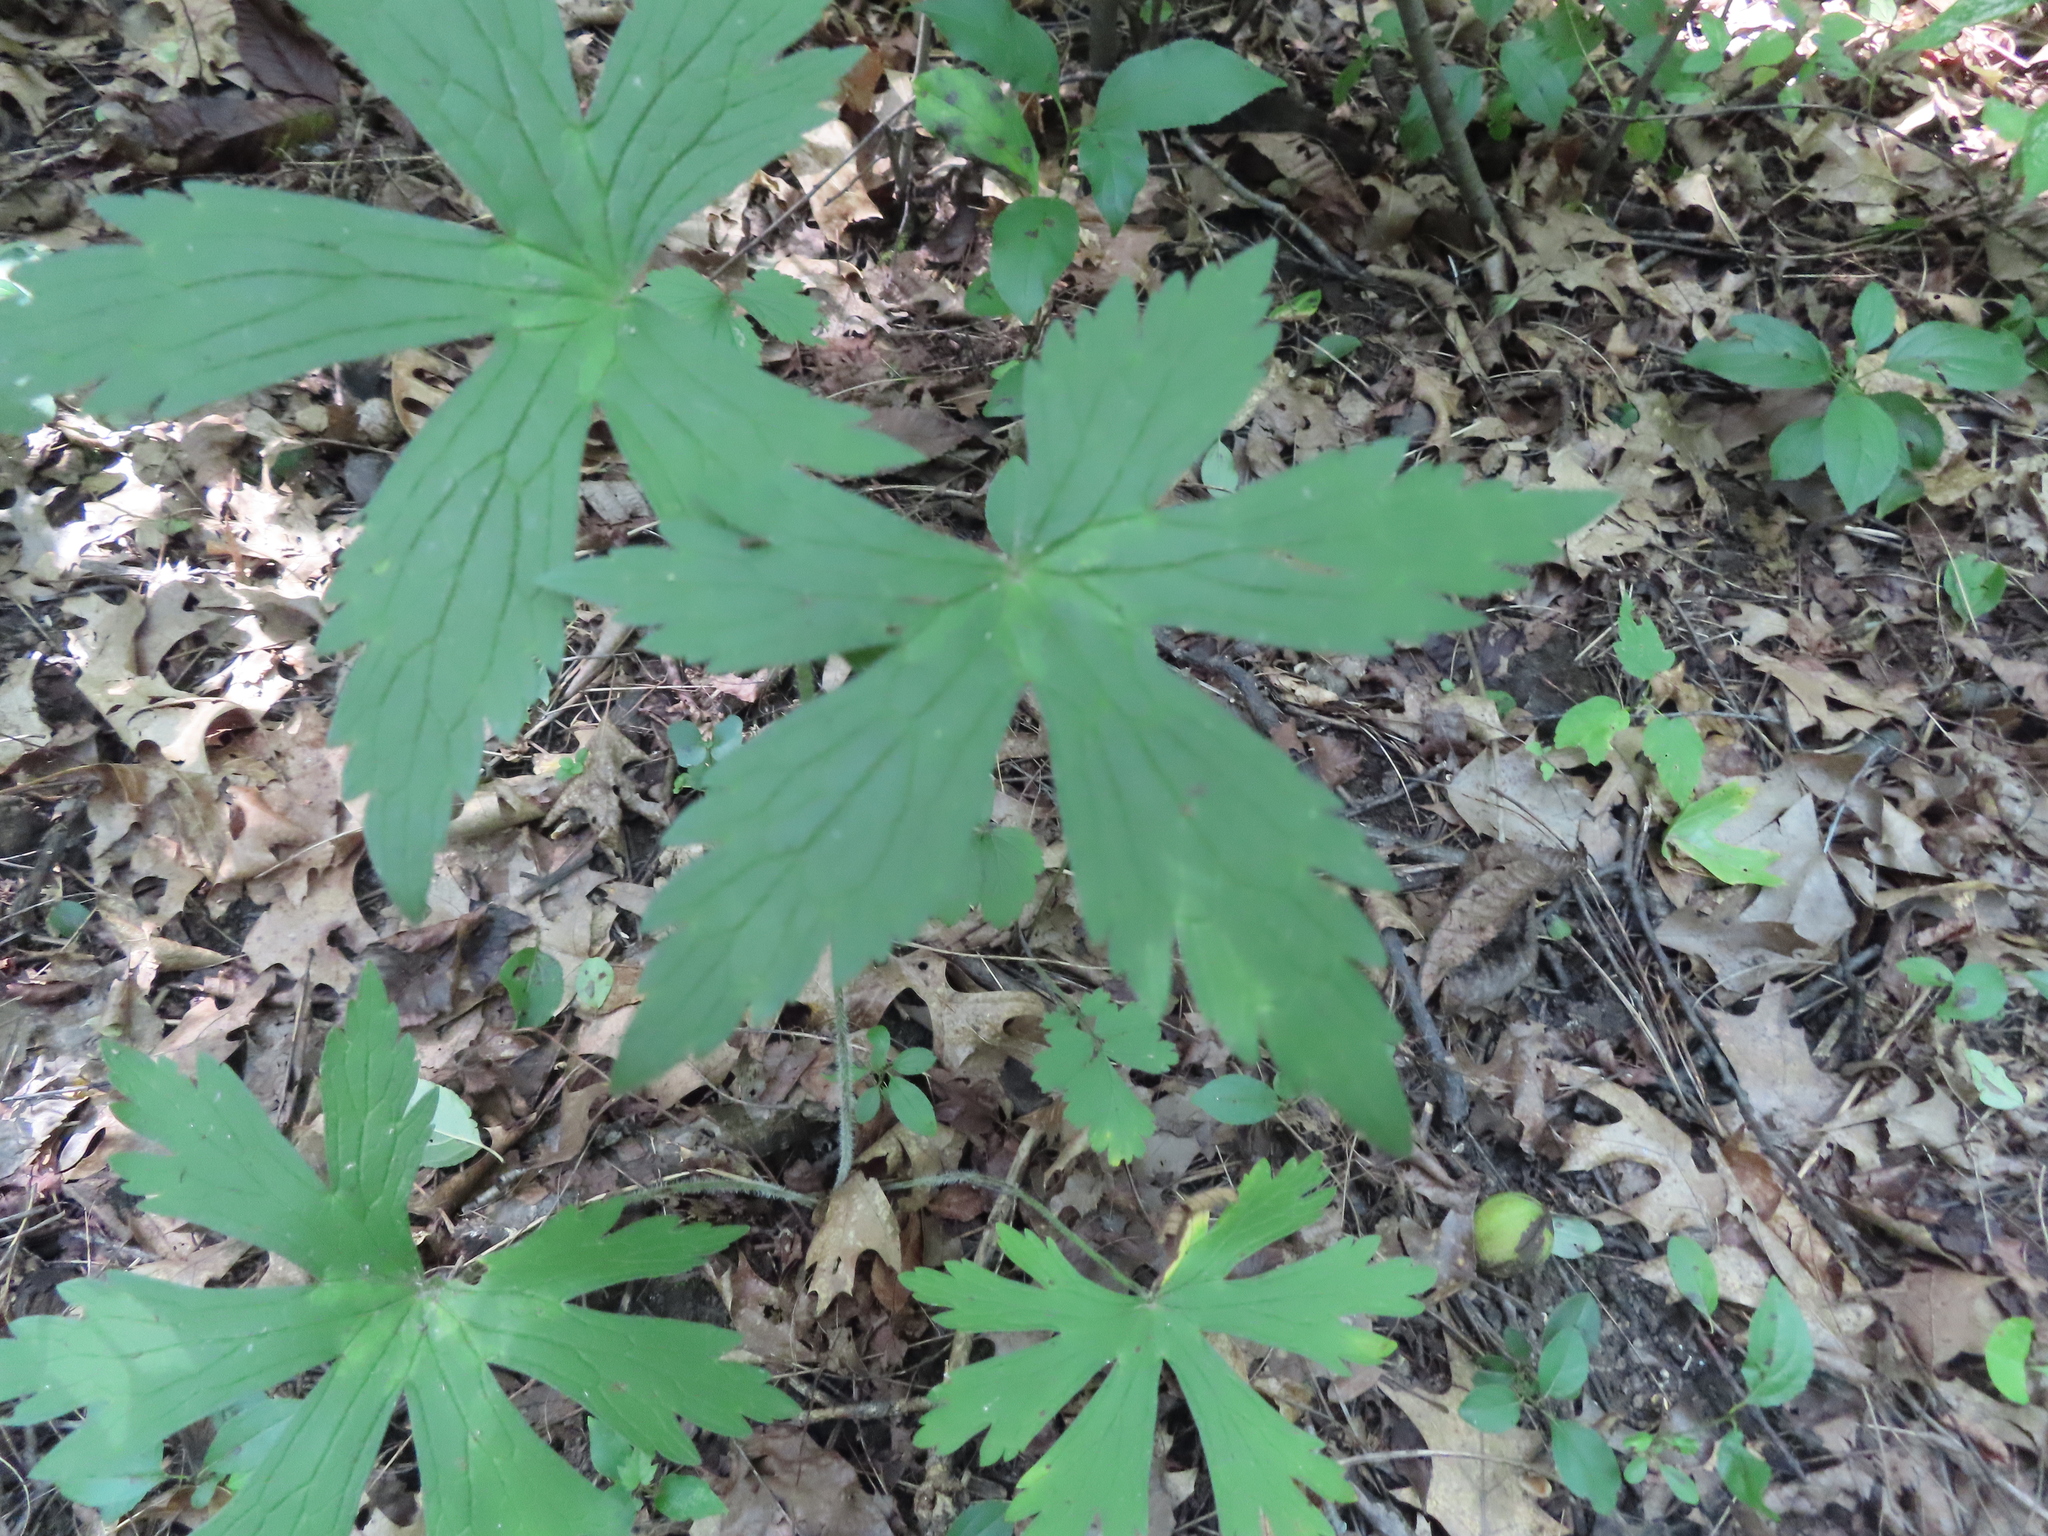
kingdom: Plantae
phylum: Tracheophyta
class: Magnoliopsida
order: Geraniales
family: Geraniaceae
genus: Geranium
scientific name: Geranium maculatum
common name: Spotted geranium
